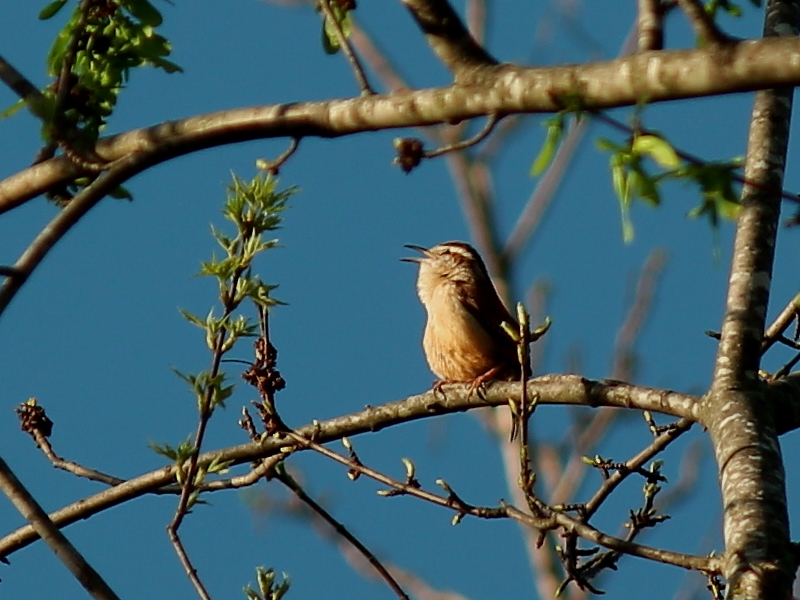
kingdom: Animalia
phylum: Chordata
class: Aves
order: Passeriformes
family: Troglodytidae
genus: Thryothorus
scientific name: Thryothorus ludovicianus
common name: Carolina wren
